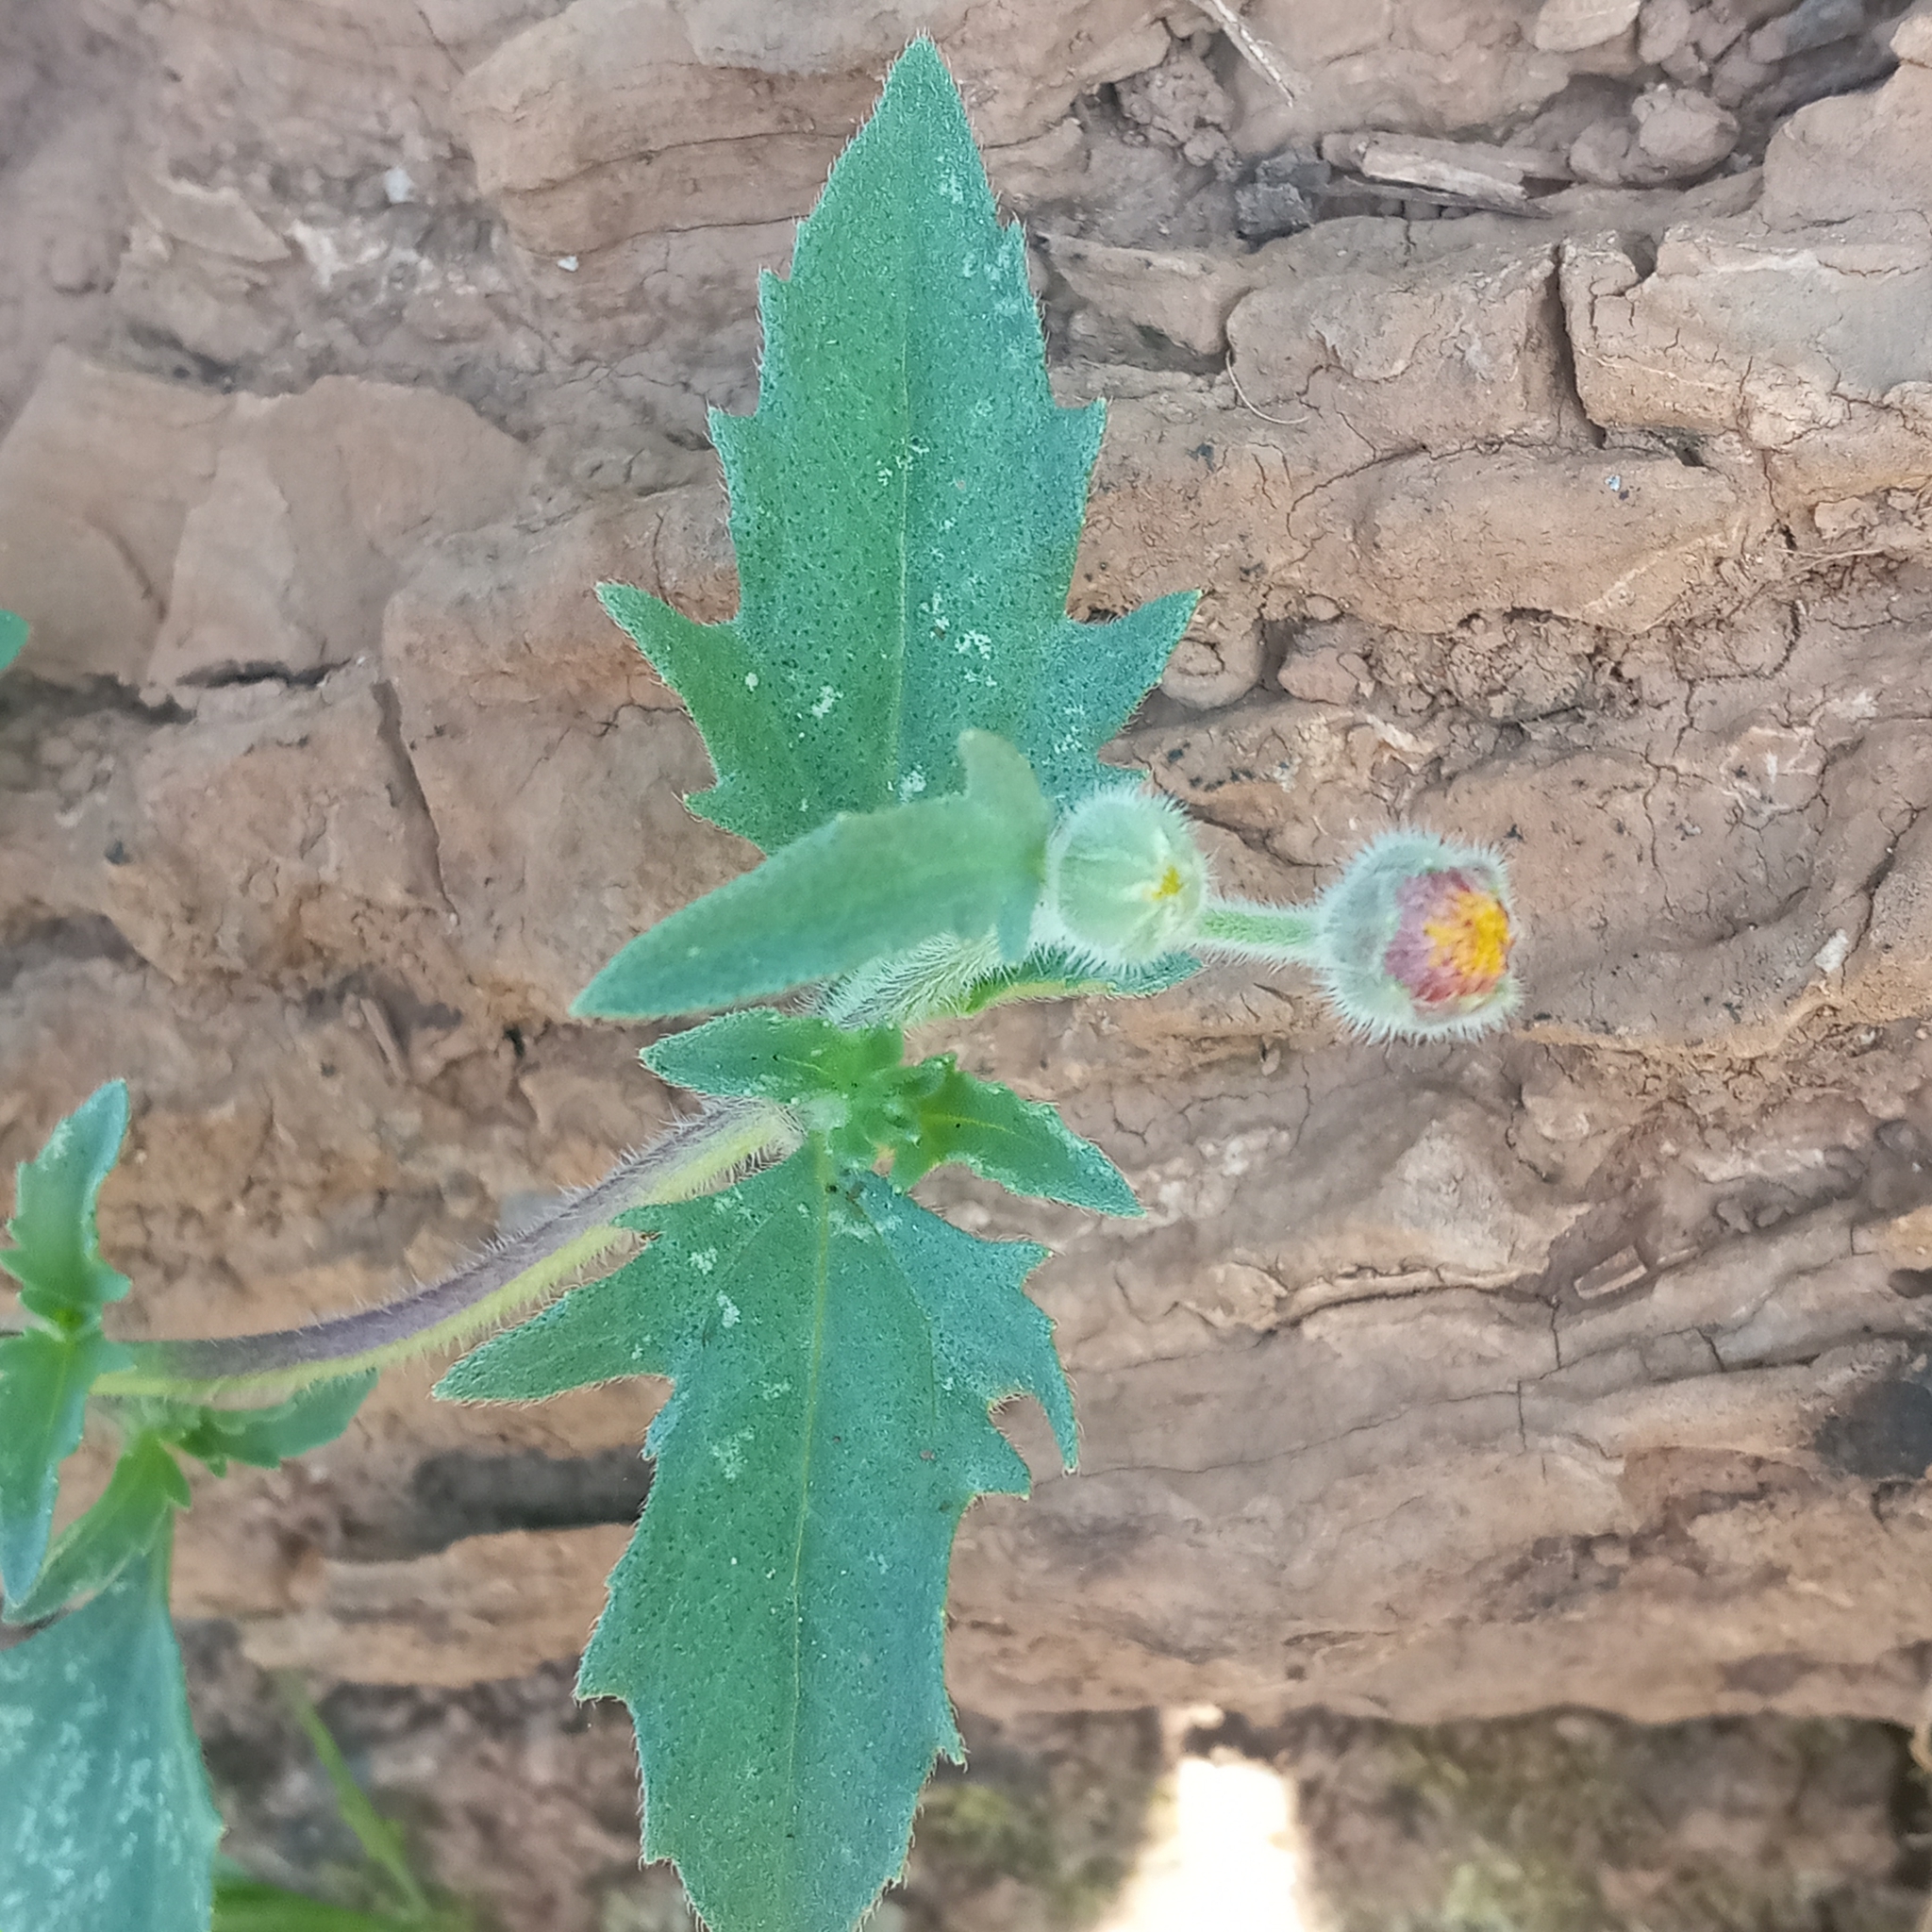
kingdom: Plantae
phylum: Tracheophyta
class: Magnoliopsida
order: Asterales
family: Asteraceae
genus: Tridax
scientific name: Tridax procumbens
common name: Coatbuttons
